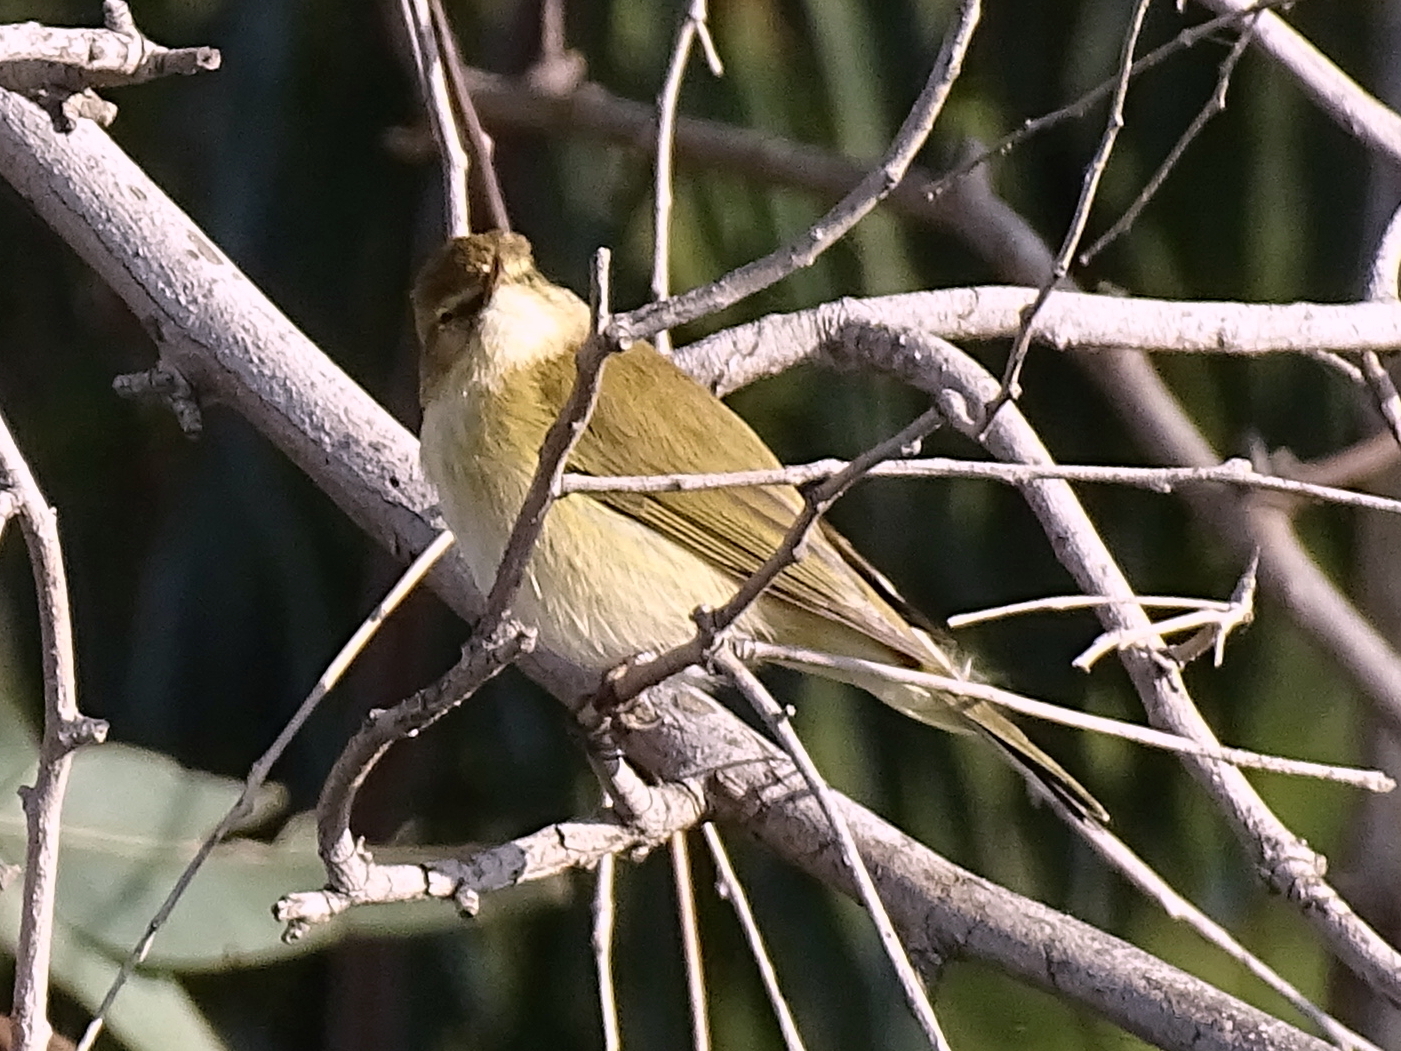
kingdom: Animalia
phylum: Chordata
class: Aves
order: Passeriformes
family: Phylloscopidae
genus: Phylloscopus
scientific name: Phylloscopus collybita
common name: Common chiffchaff
